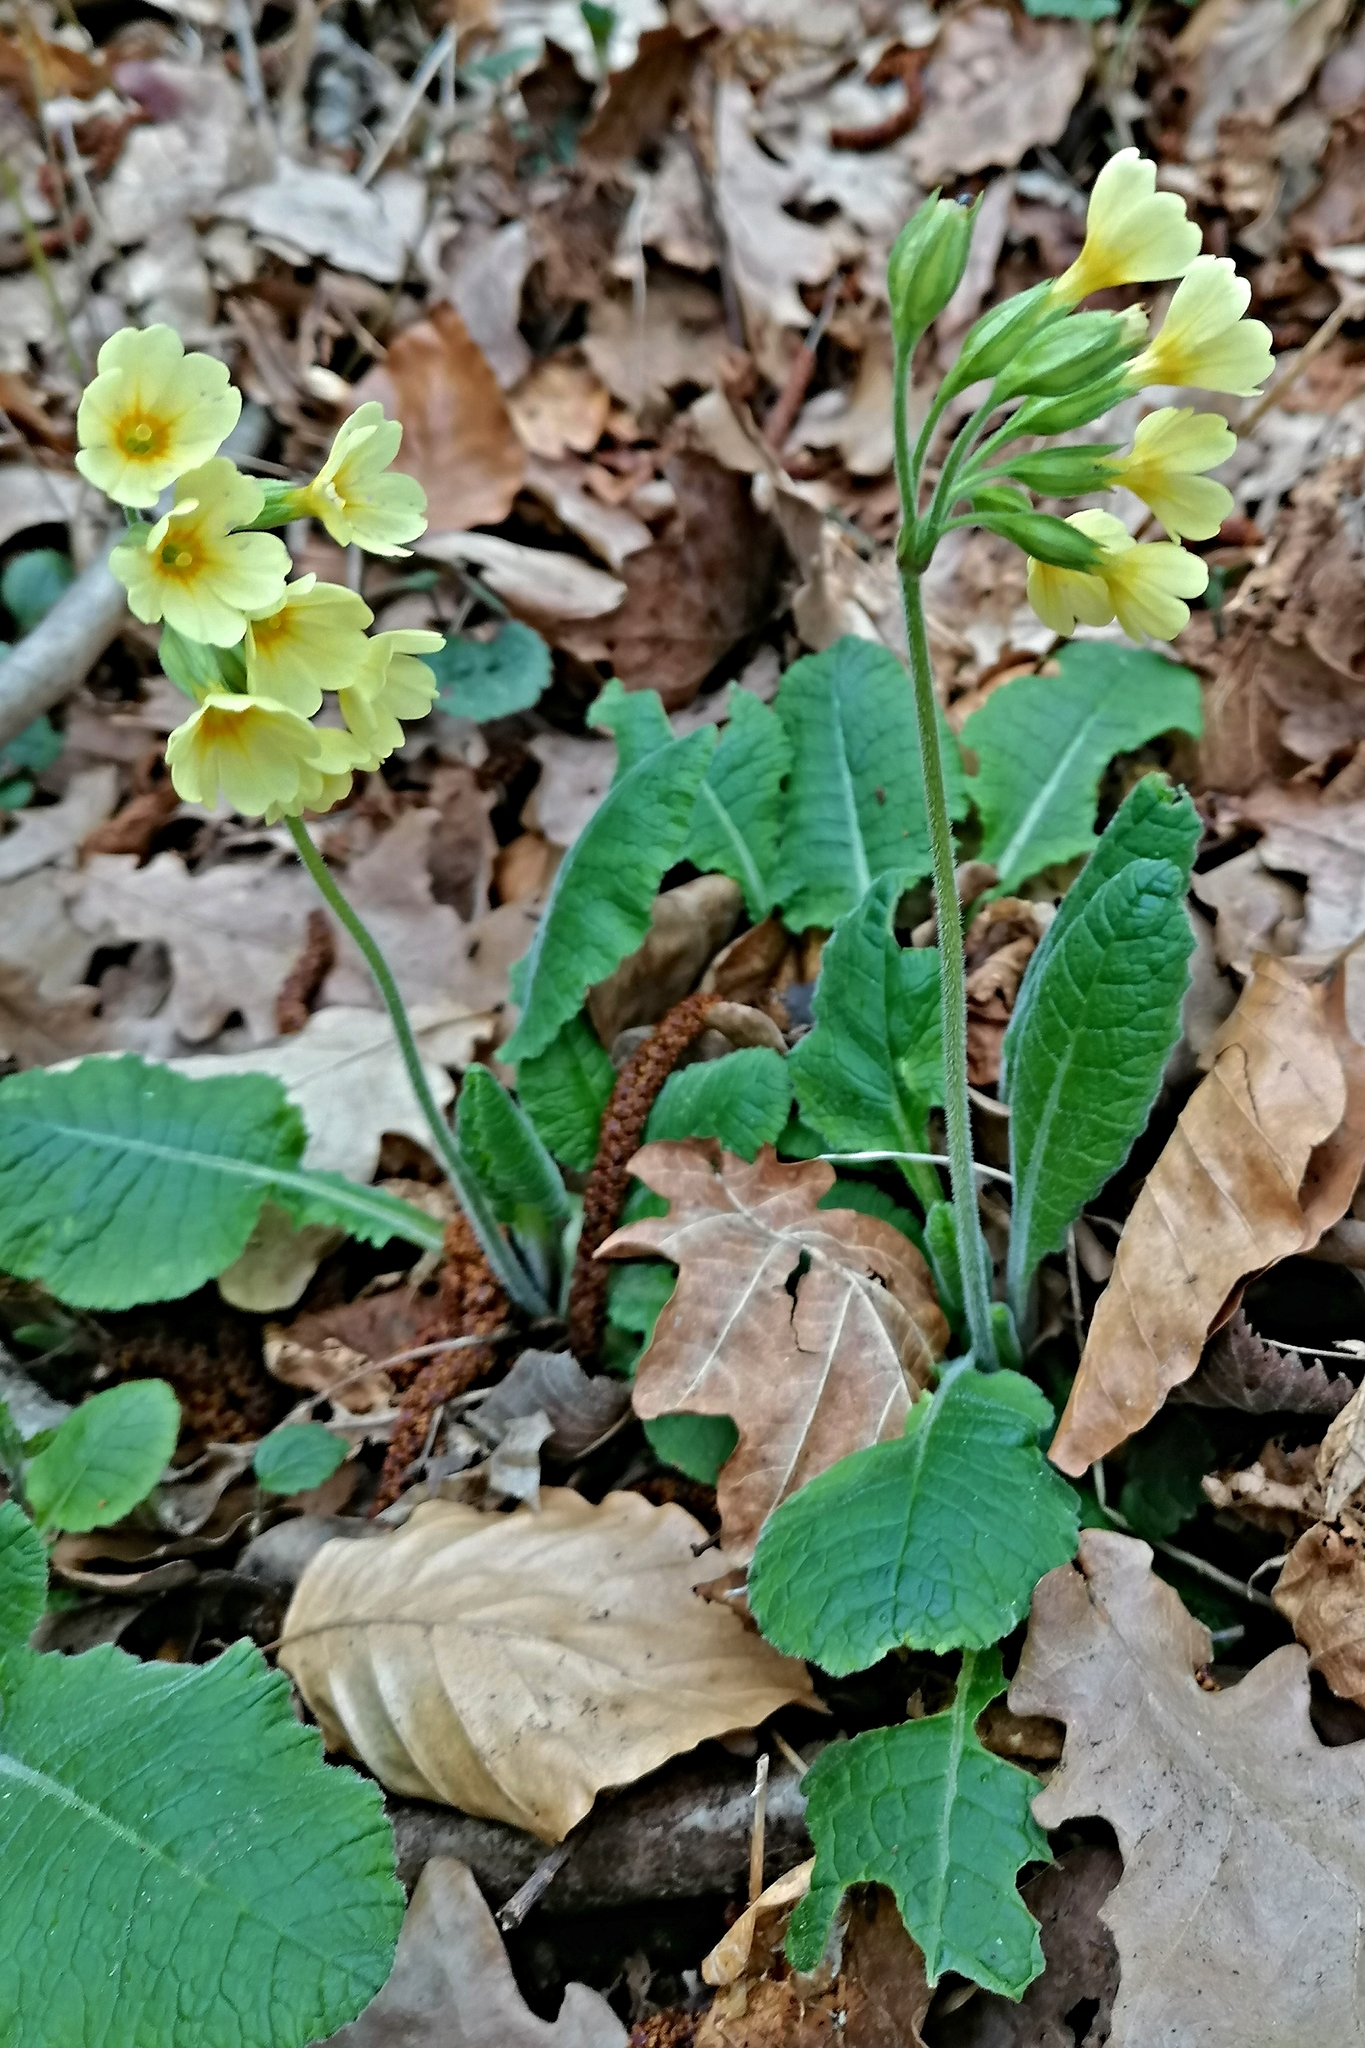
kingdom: Plantae
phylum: Tracheophyta
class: Magnoliopsida
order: Ericales
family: Primulaceae
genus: Primula
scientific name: Primula elatior
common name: Oxlip
